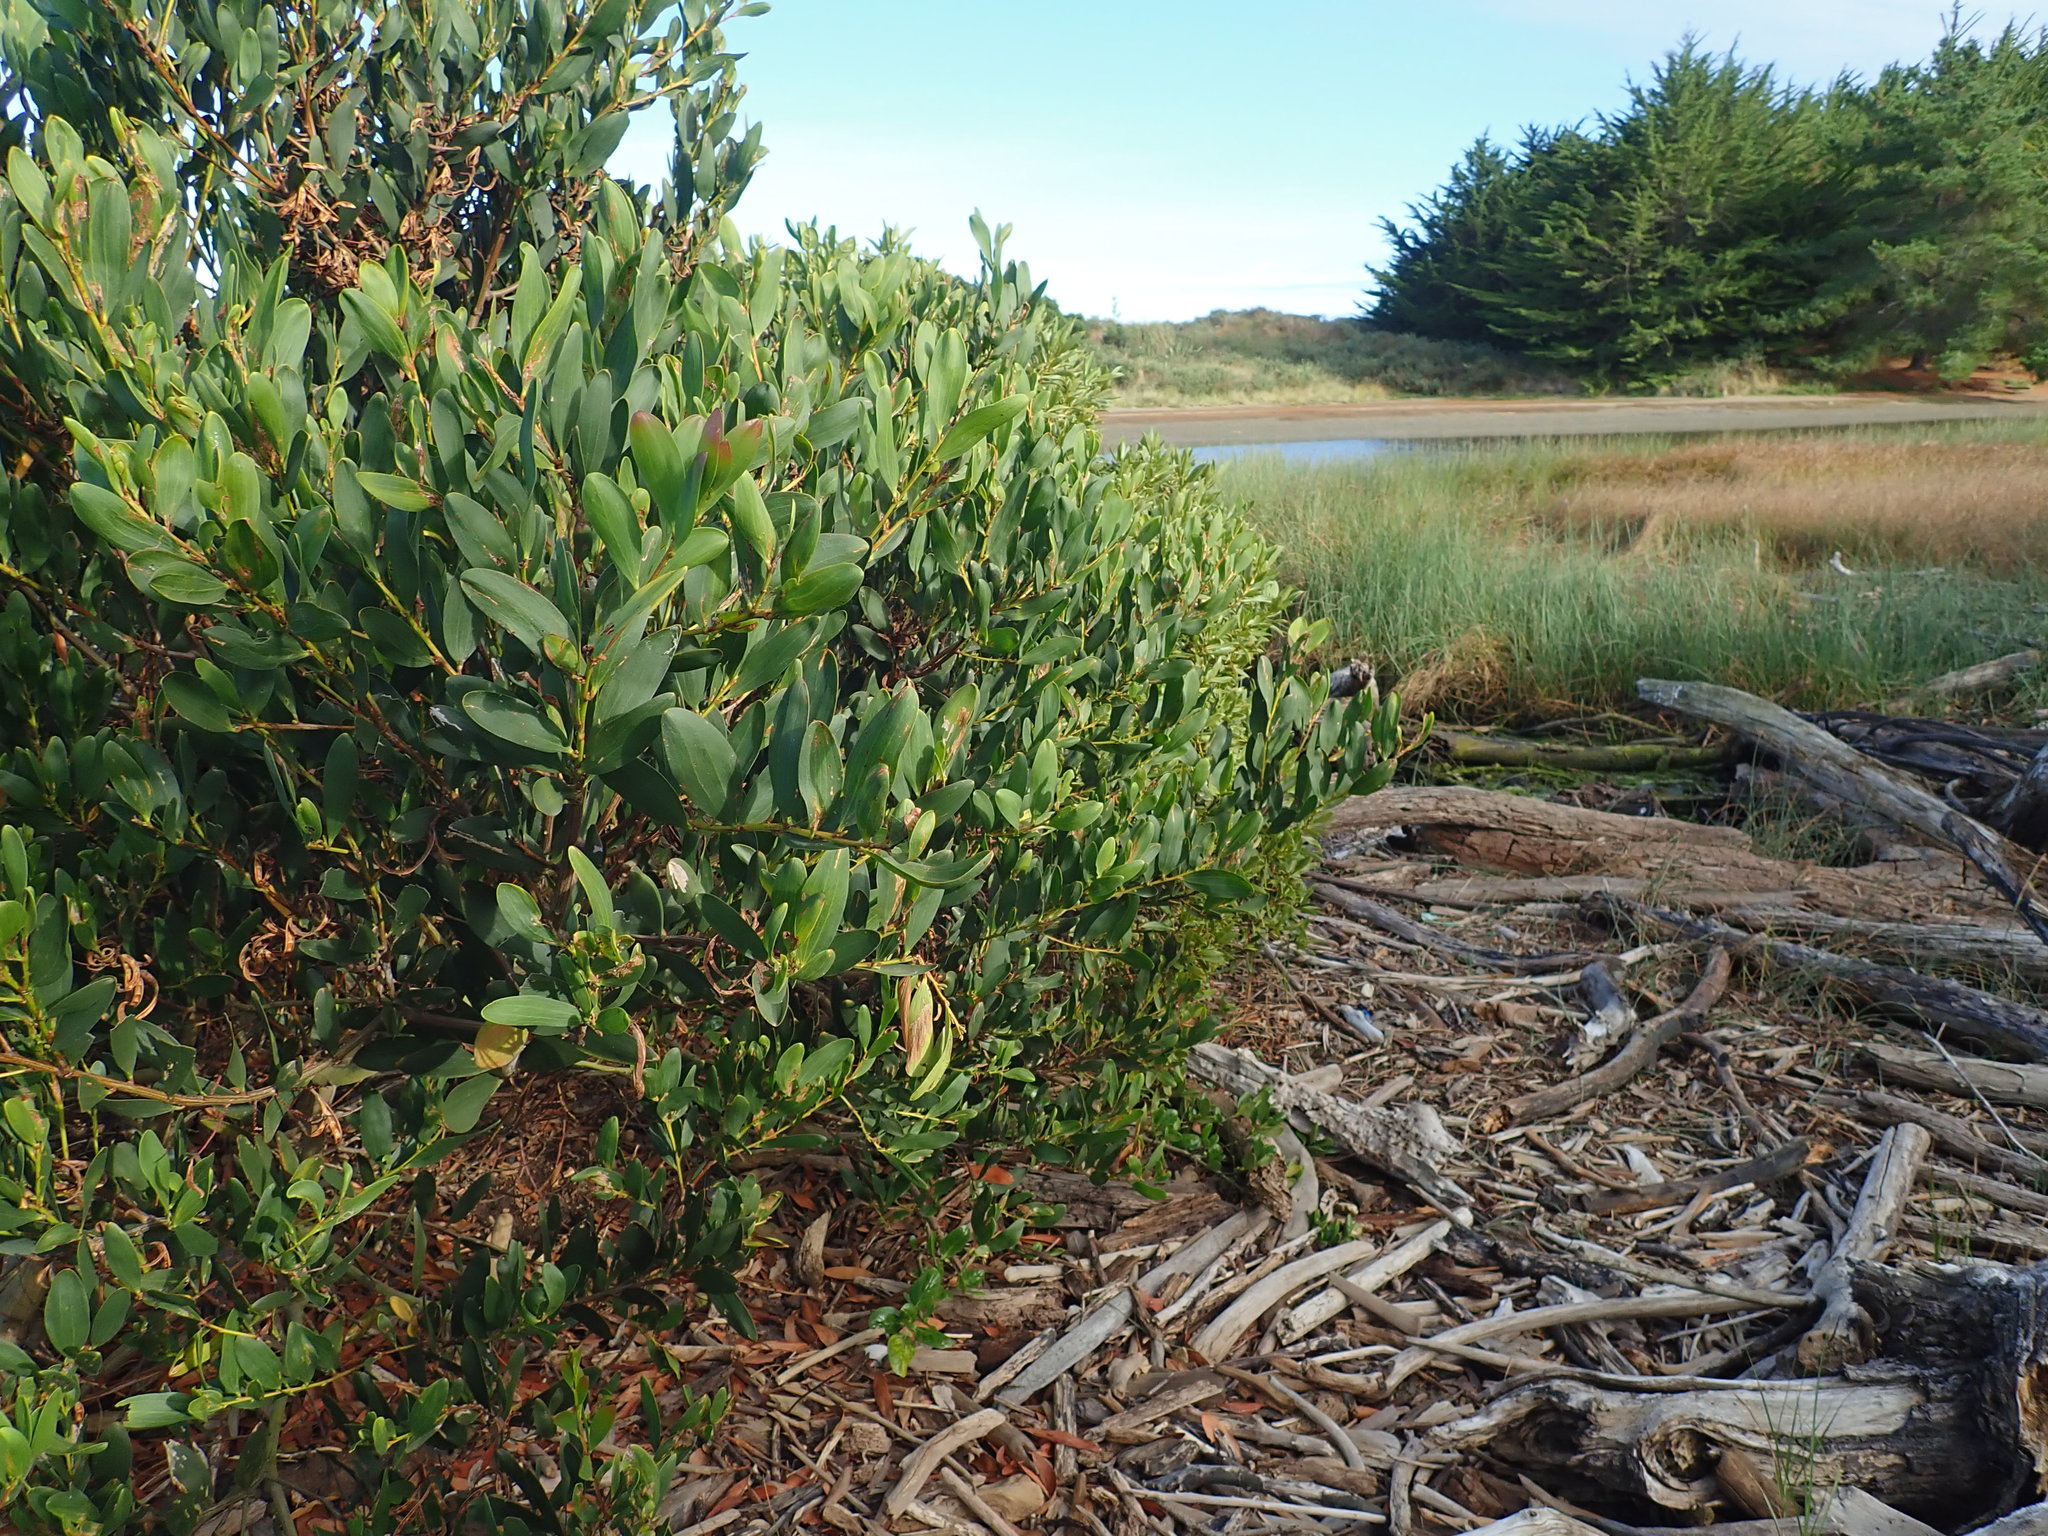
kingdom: Plantae
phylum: Tracheophyta
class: Magnoliopsida
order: Fabales
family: Fabaceae
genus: Acacia
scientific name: Acacia longifolia
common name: Sydney golden wattle
